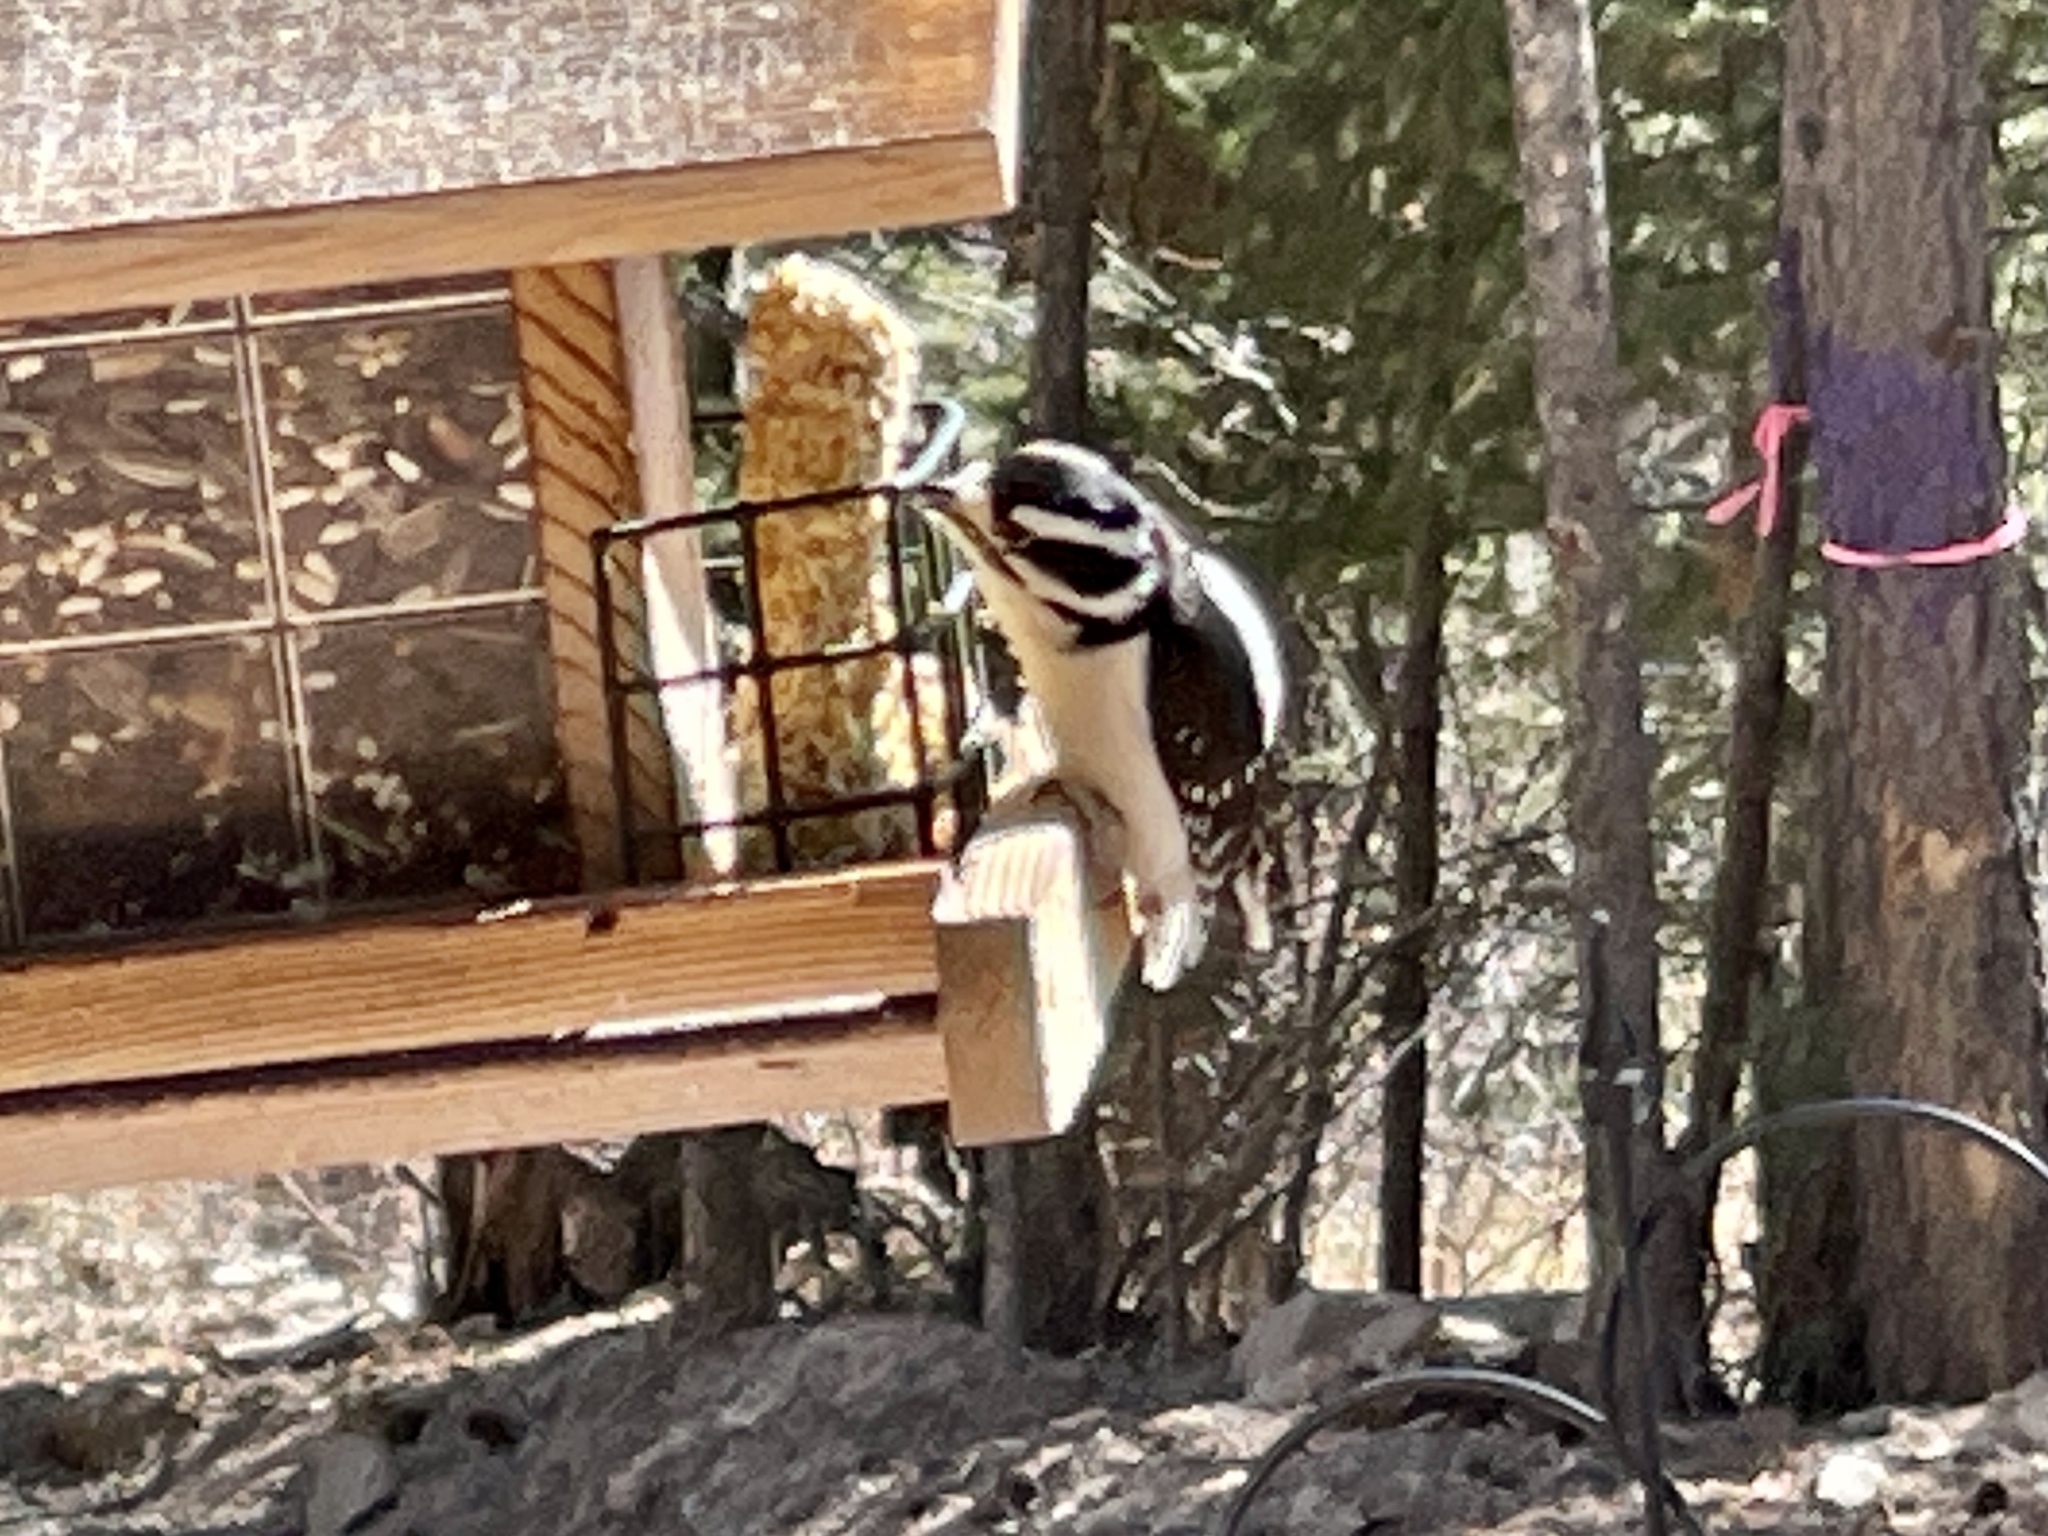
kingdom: Animalia
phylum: Chordata
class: Aves
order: Piciformes
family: Picidae
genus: Dryobates
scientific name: Dryobates pubescens
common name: Downy woodpecker
